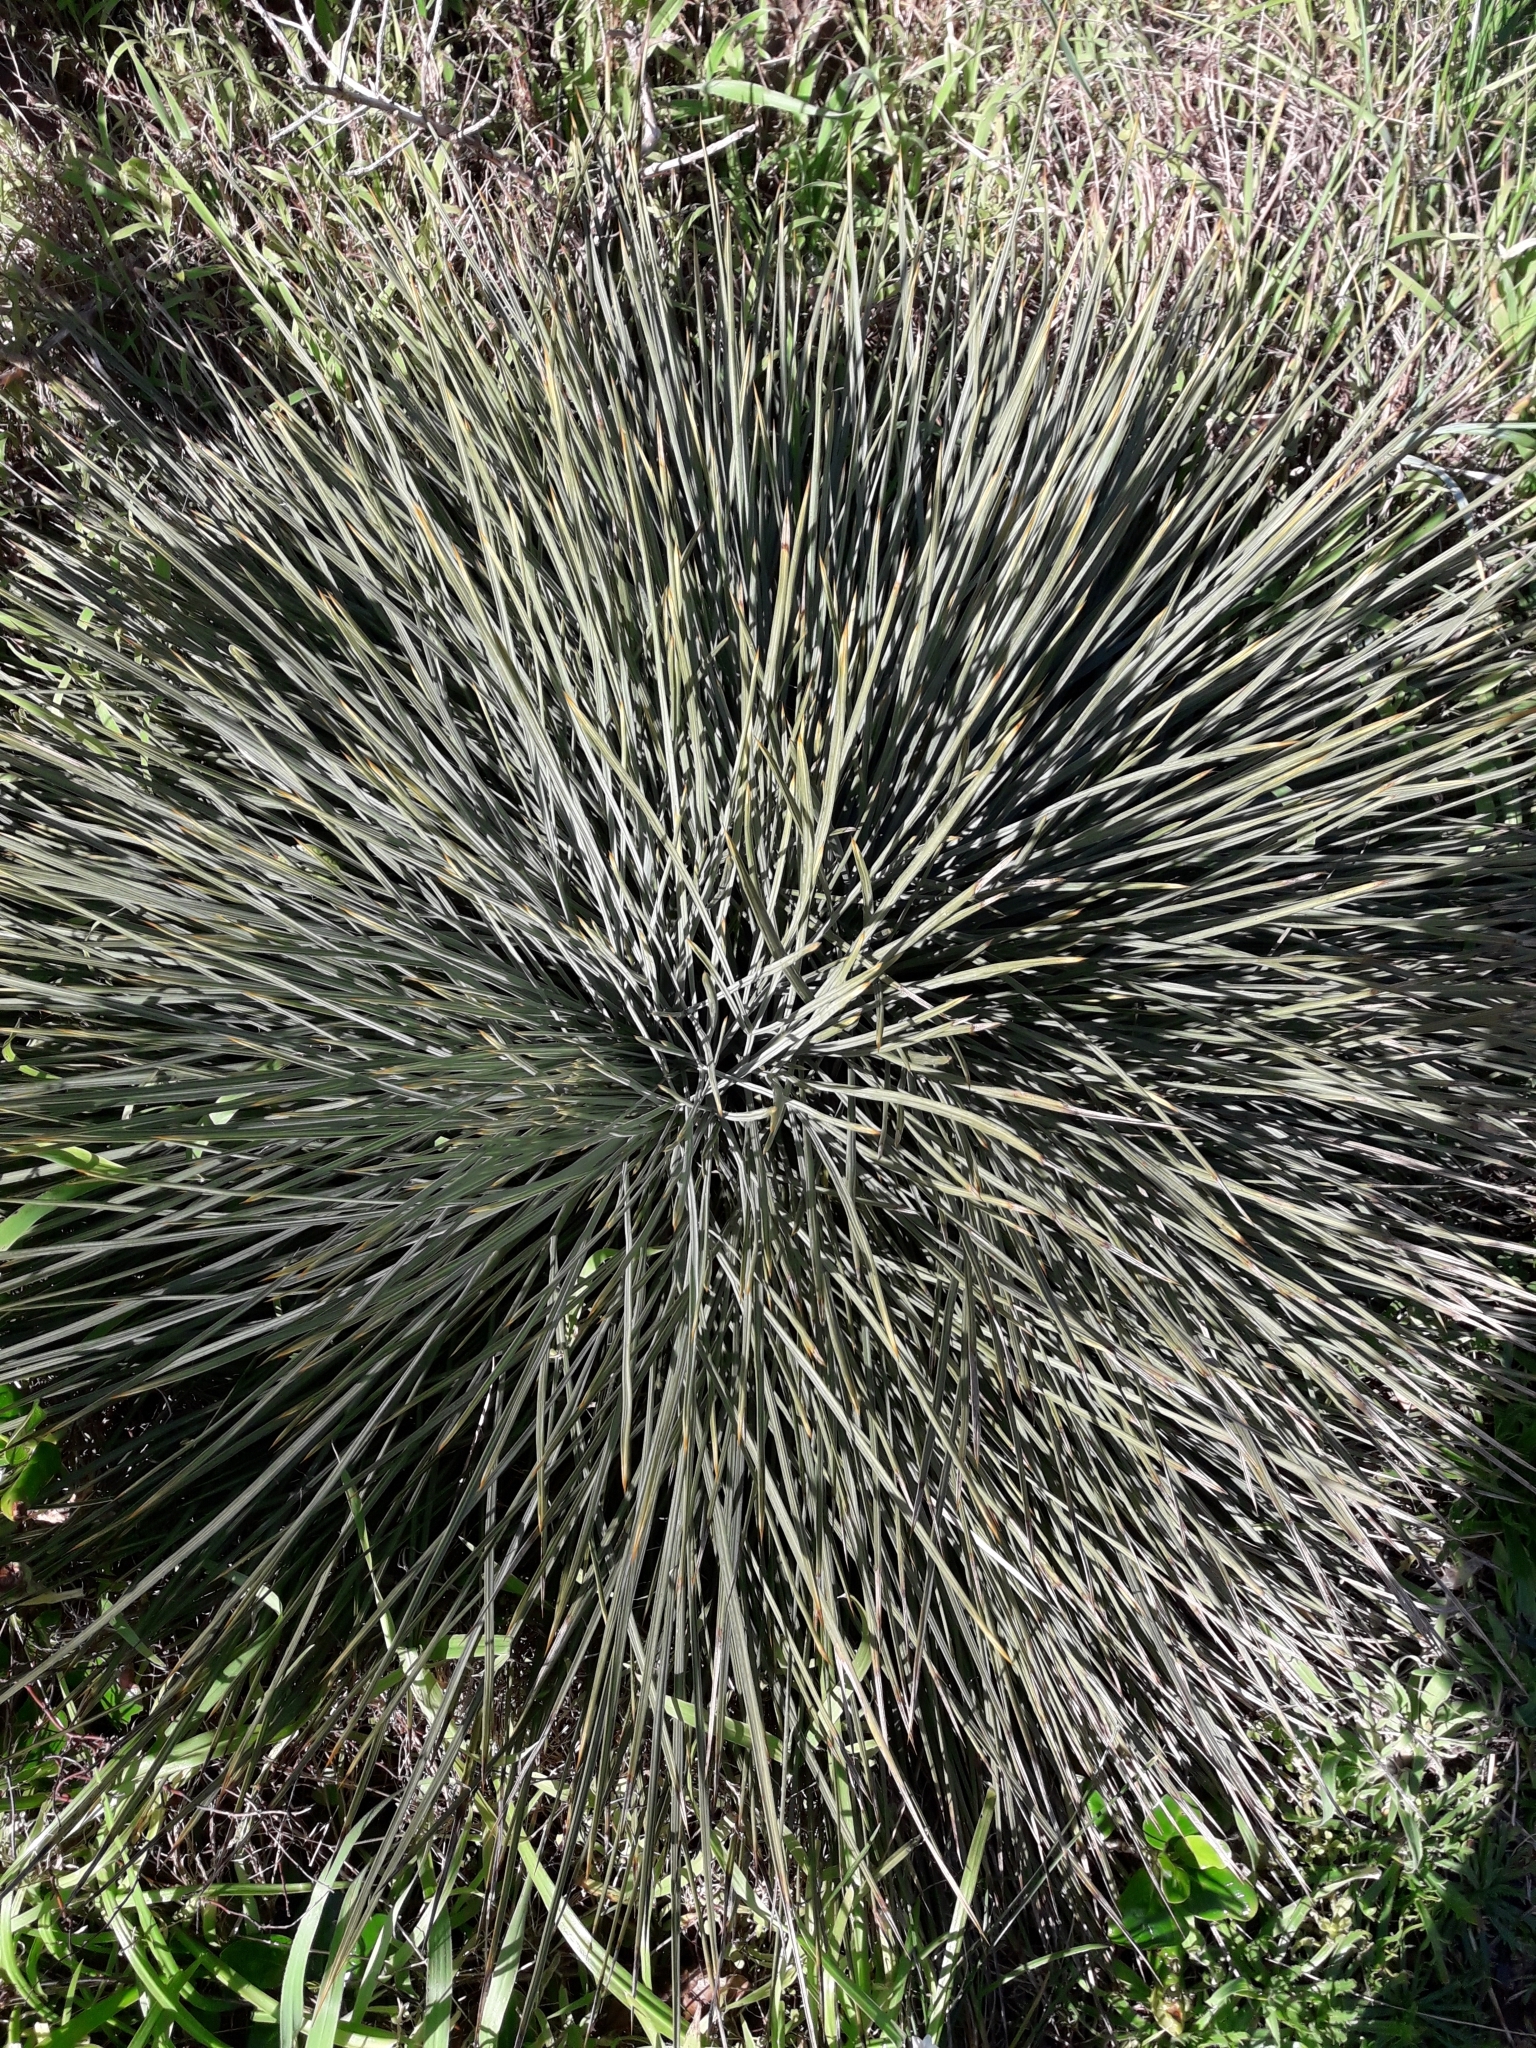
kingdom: Plantae
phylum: Tracheophyta
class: Magnoliopsida
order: Apiales
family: Apiaceae
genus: Aciphylla
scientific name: Aciphylla squarrosa
